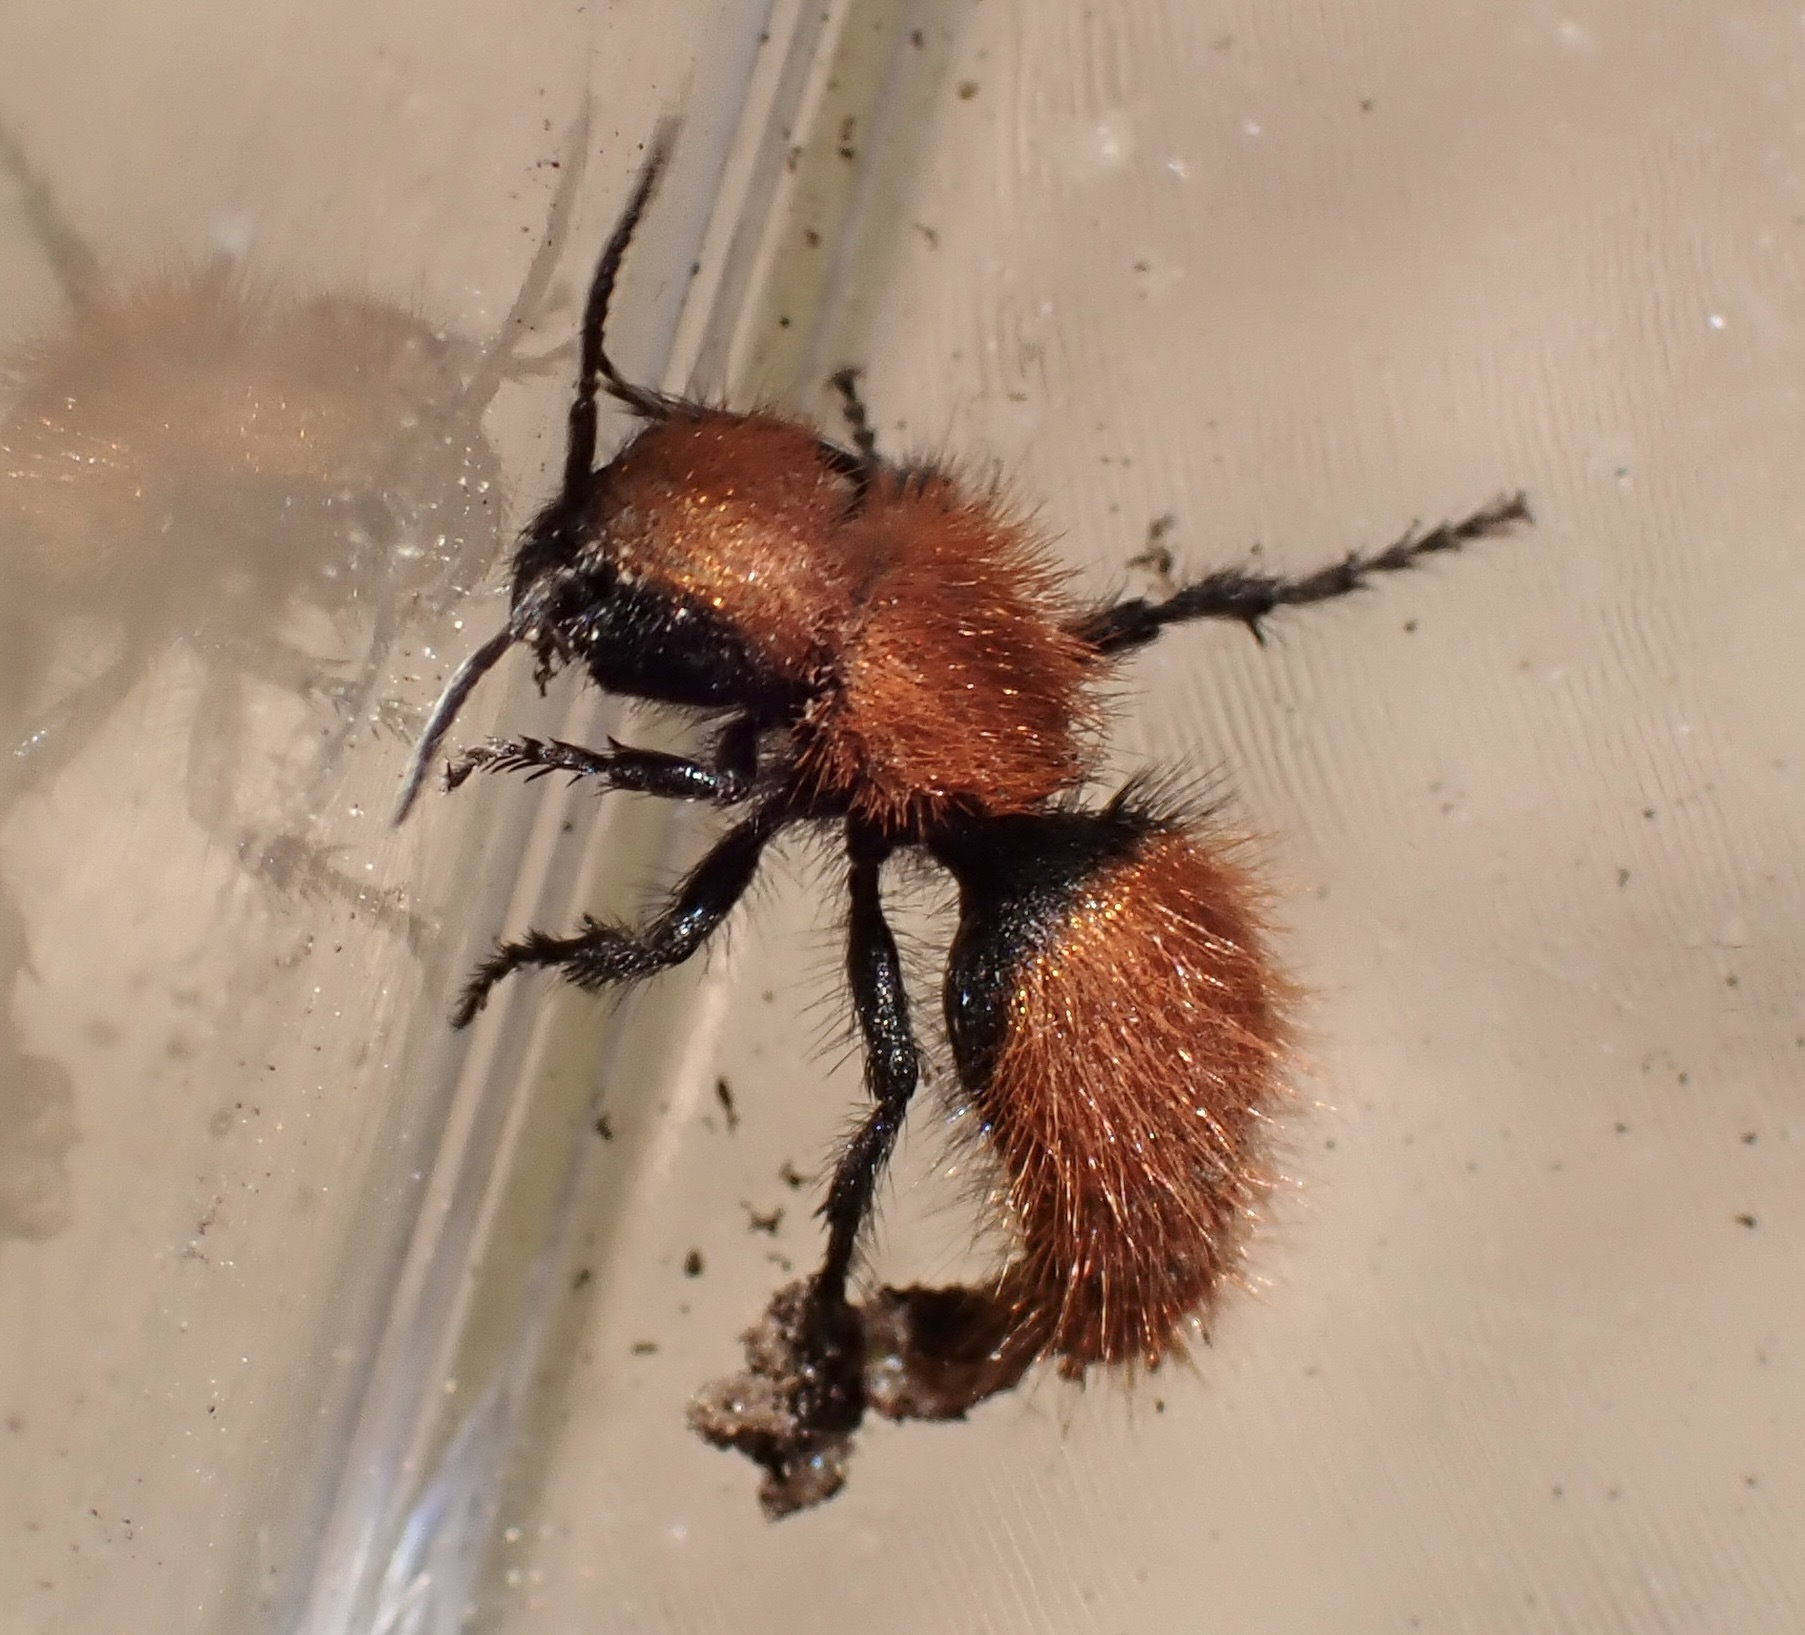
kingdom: Animalia
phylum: Arthropoda
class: Insecta
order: Hymenoptera
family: Mutillidae
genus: Dasymutilla
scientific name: Dasymutilla
